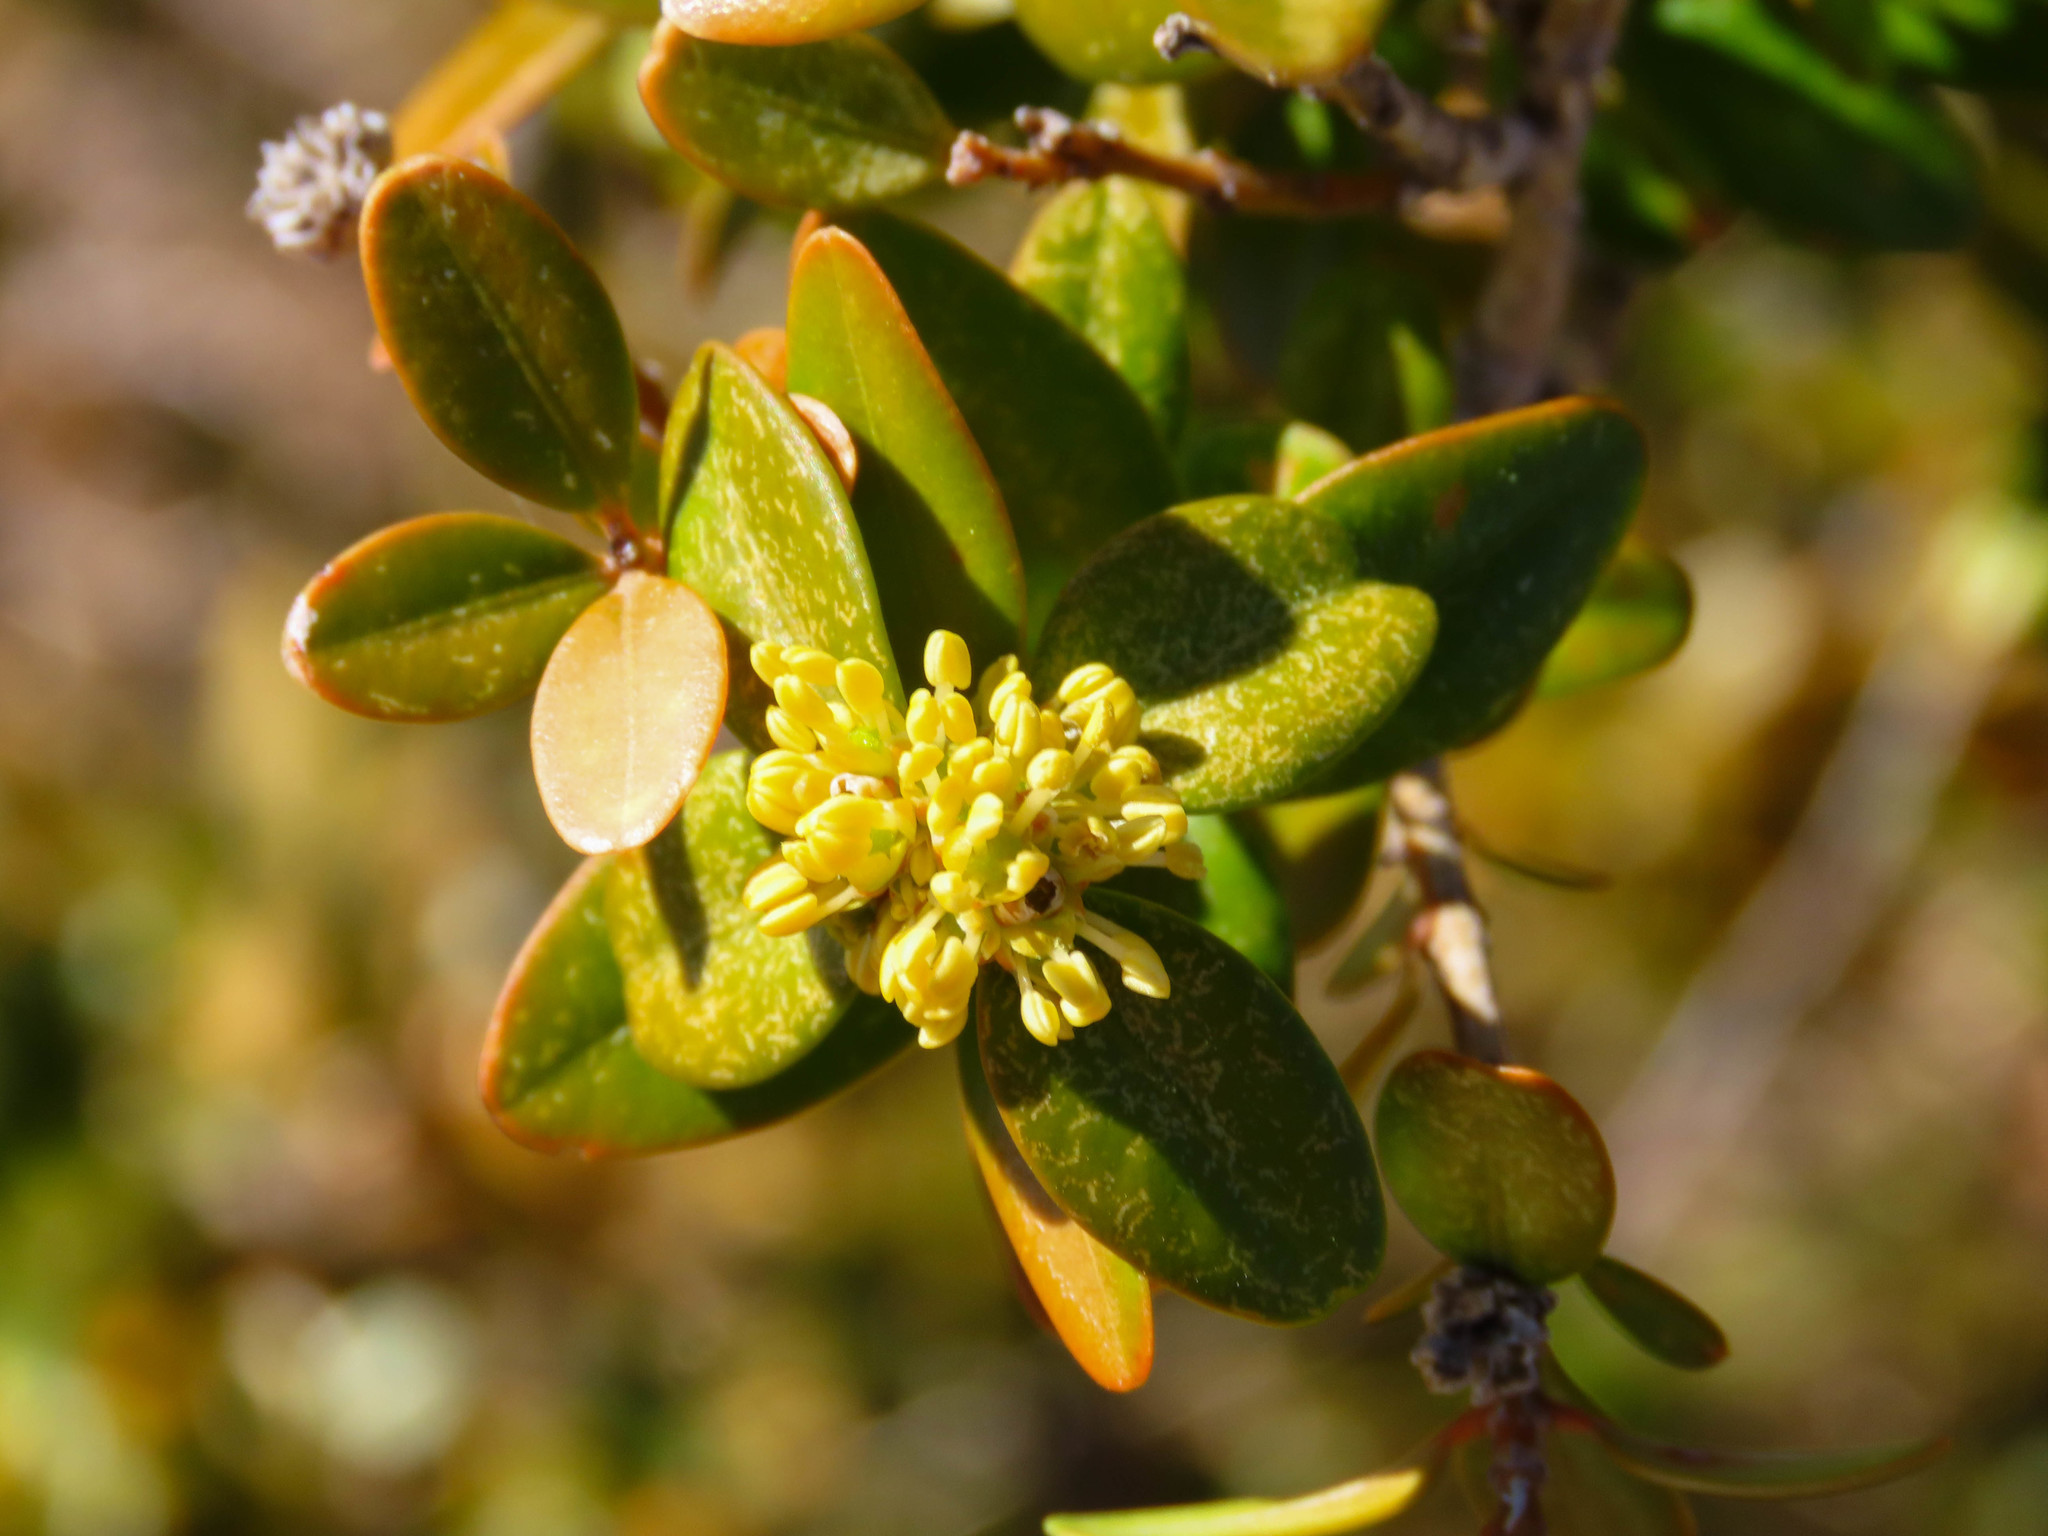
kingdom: Plantae
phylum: Tracheophyta
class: Magnoliopsida
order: Buxales
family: Buxaceae
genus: Buxus
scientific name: Buxus sempervirens
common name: Box
